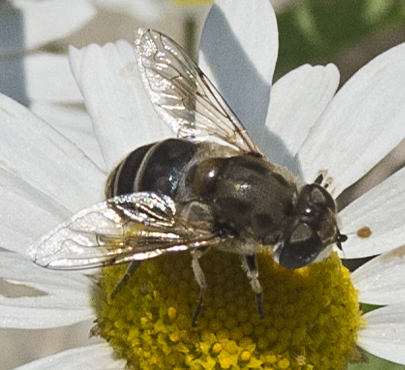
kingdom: Animalia
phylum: Arthropoda
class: Insecta
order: Diptera
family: Syrphidae
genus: Eristalis
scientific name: Eristalis arbustorum
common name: Hover fly
